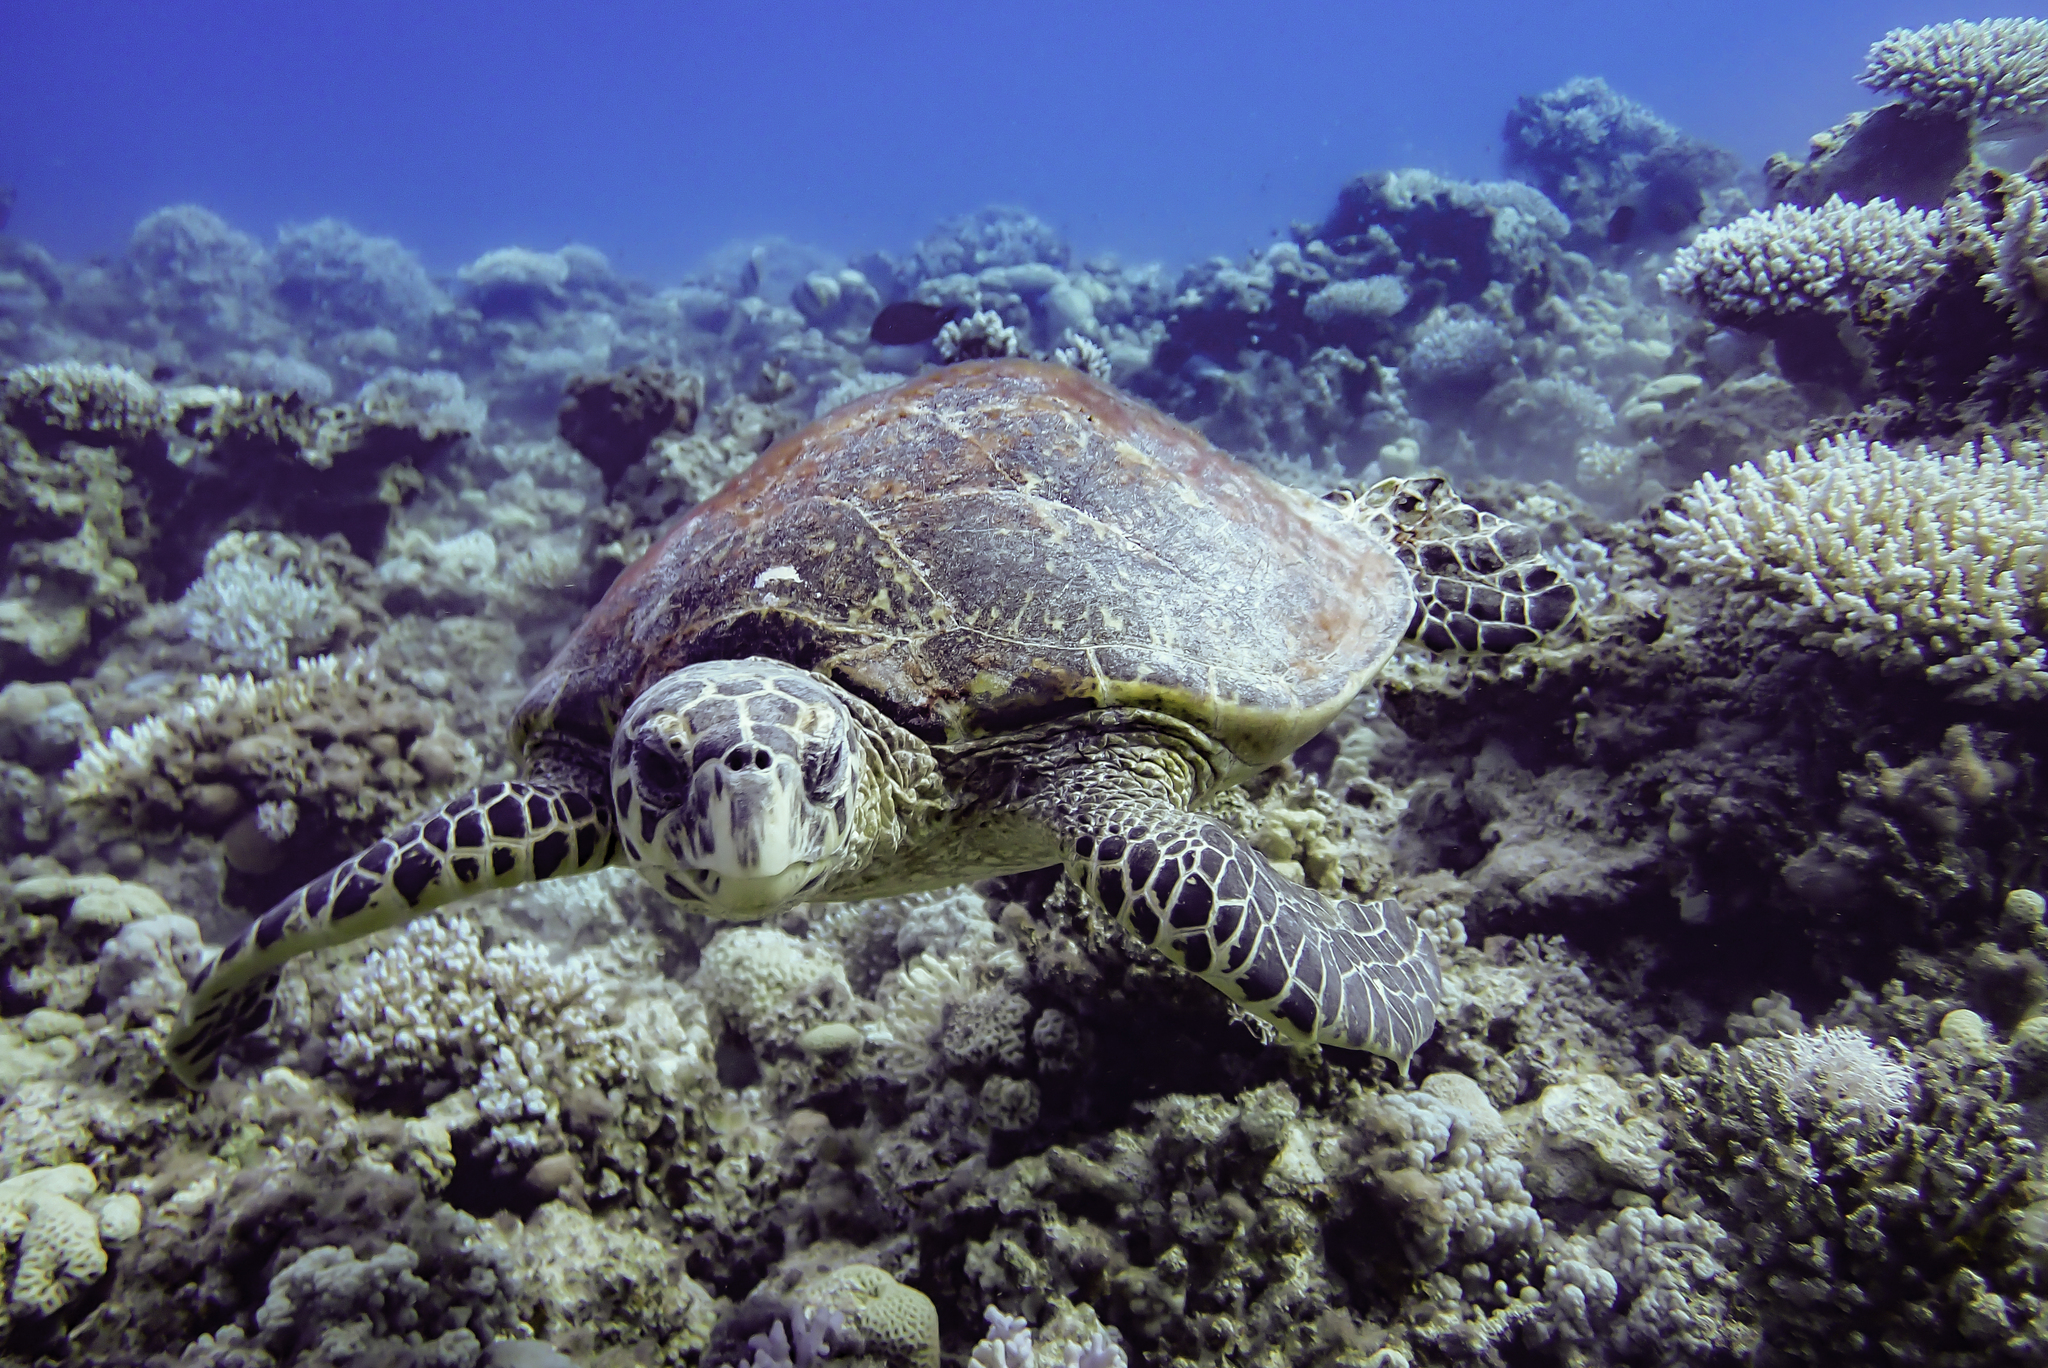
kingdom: Animalia
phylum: Chordata
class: Testudines
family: Cheloniidae
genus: Eretmochelys
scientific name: Eretmochelys imbricata
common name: Hawksbill turtle
